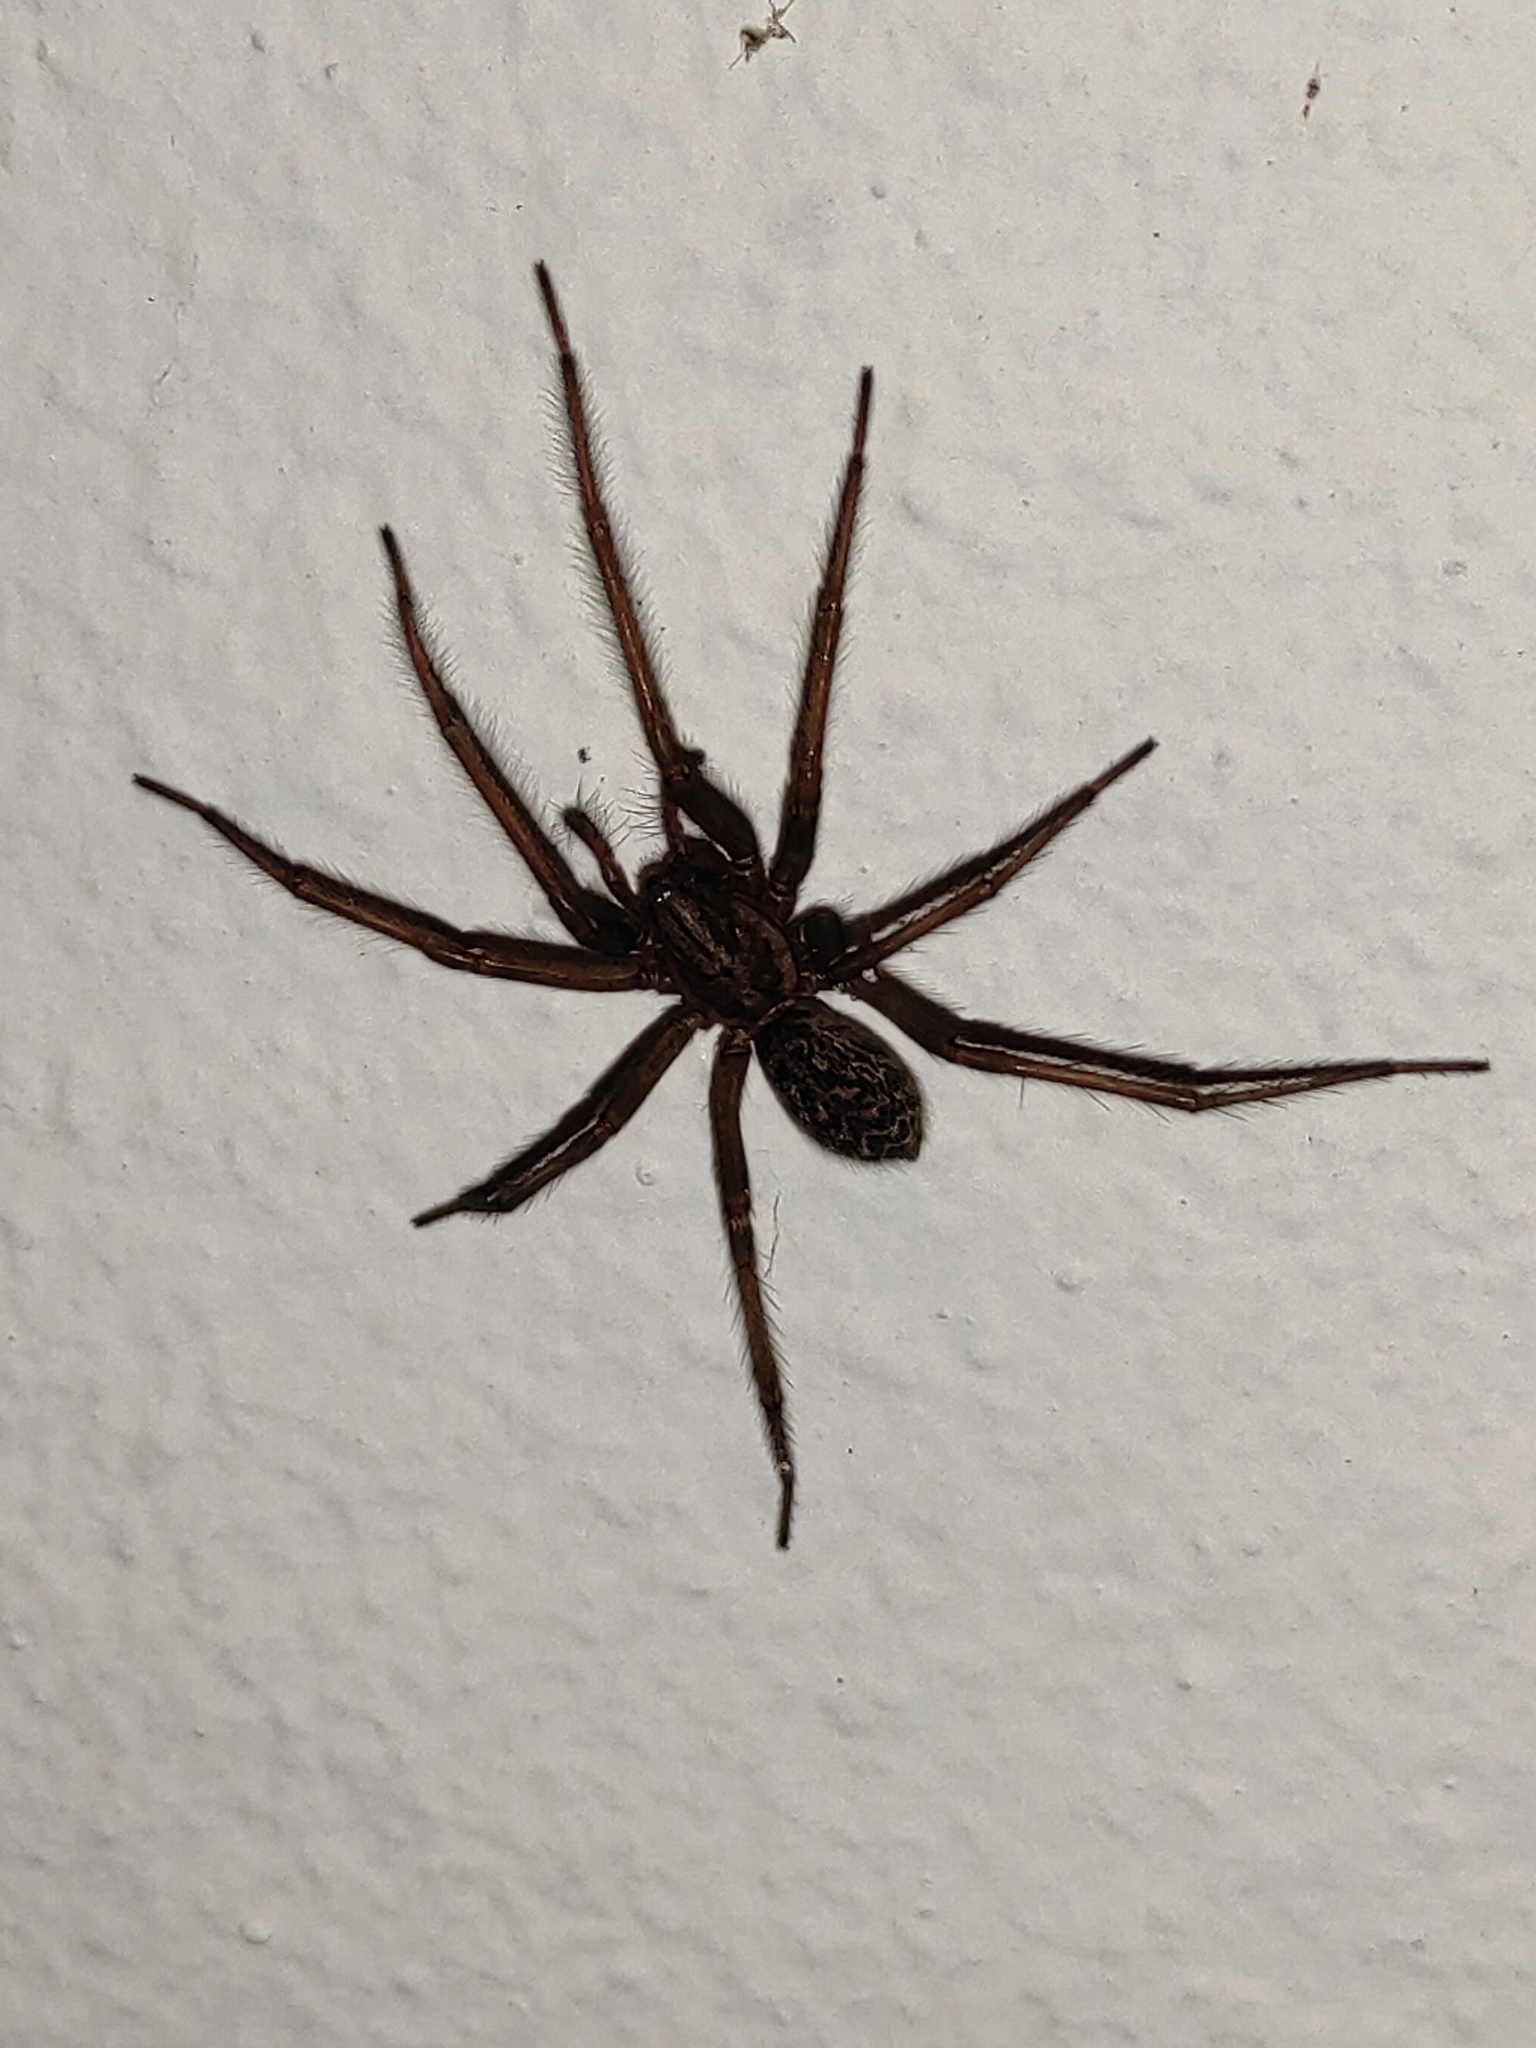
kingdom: Animalia
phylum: Arthropoda
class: Arachnida
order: Araneae
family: Agelenidae
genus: Eratigena
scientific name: Eratigena atrica
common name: Giant house spider
